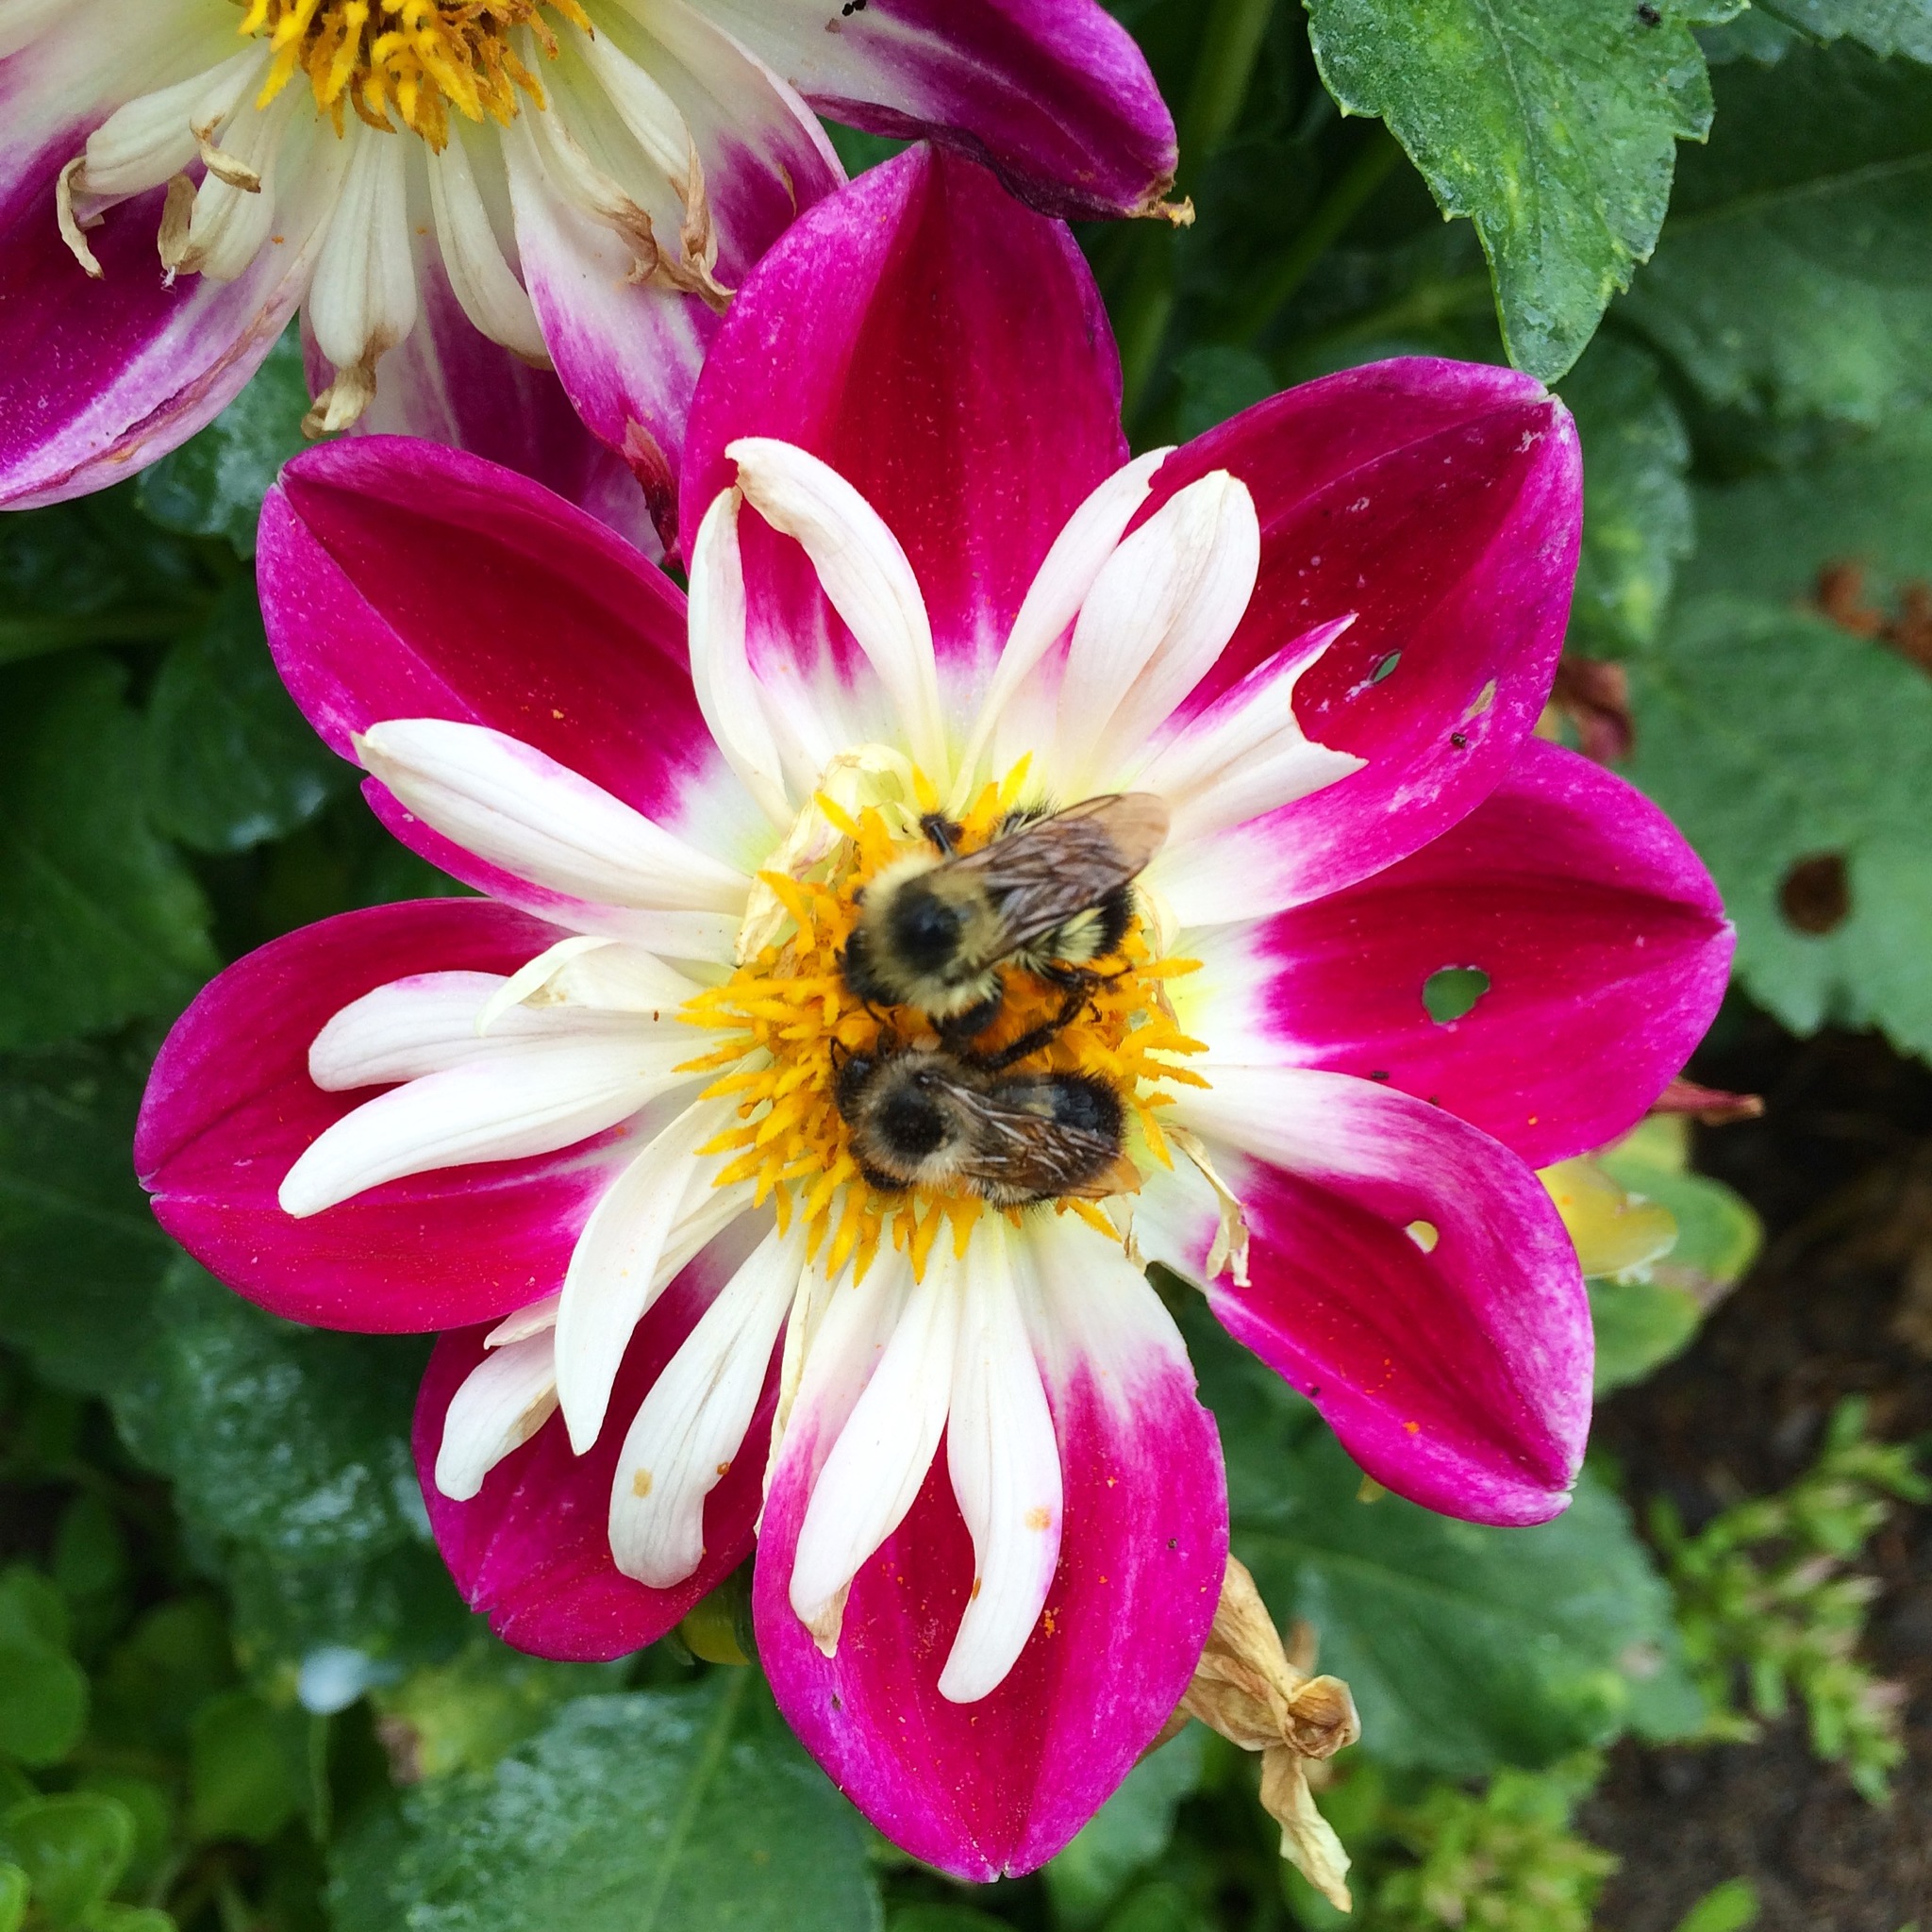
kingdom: Animalia
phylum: Arthropoda
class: Insecta
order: Hymenoptera
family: Apidae
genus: Bombus
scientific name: Bombus rufocinctus
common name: Red-belted bumble bee
